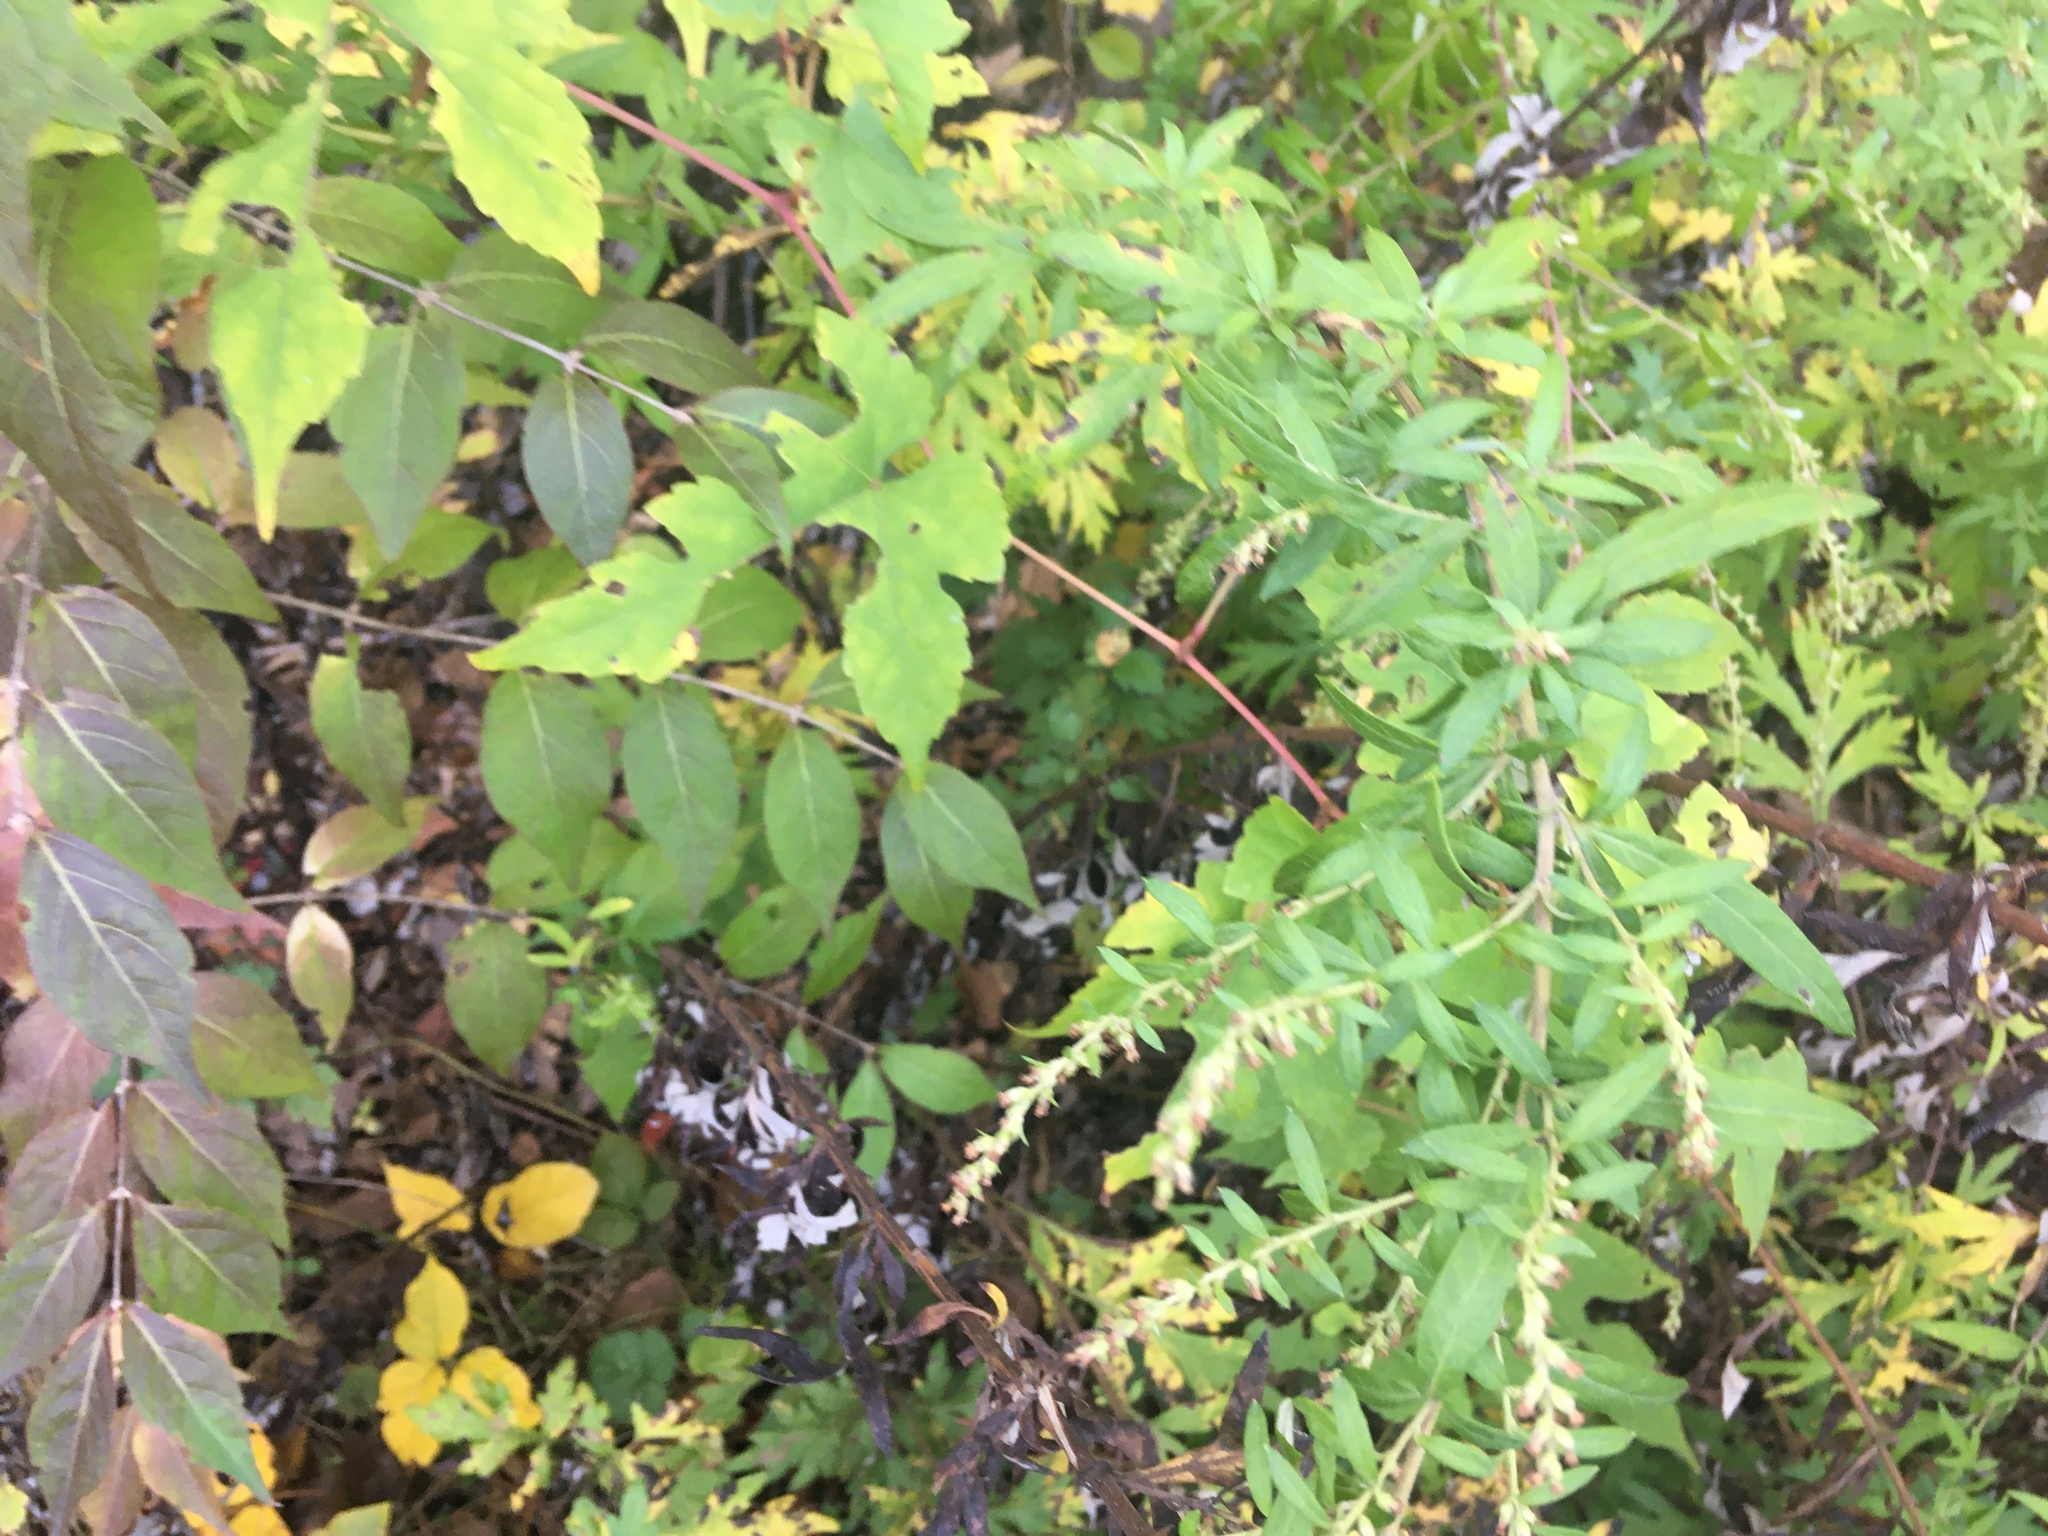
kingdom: Plantae
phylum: Tracheophyta
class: Magnoliopsida
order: Asterales
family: Asteraceae
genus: Artemisia
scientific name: Artemisia vulgaris
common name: Mugwort
